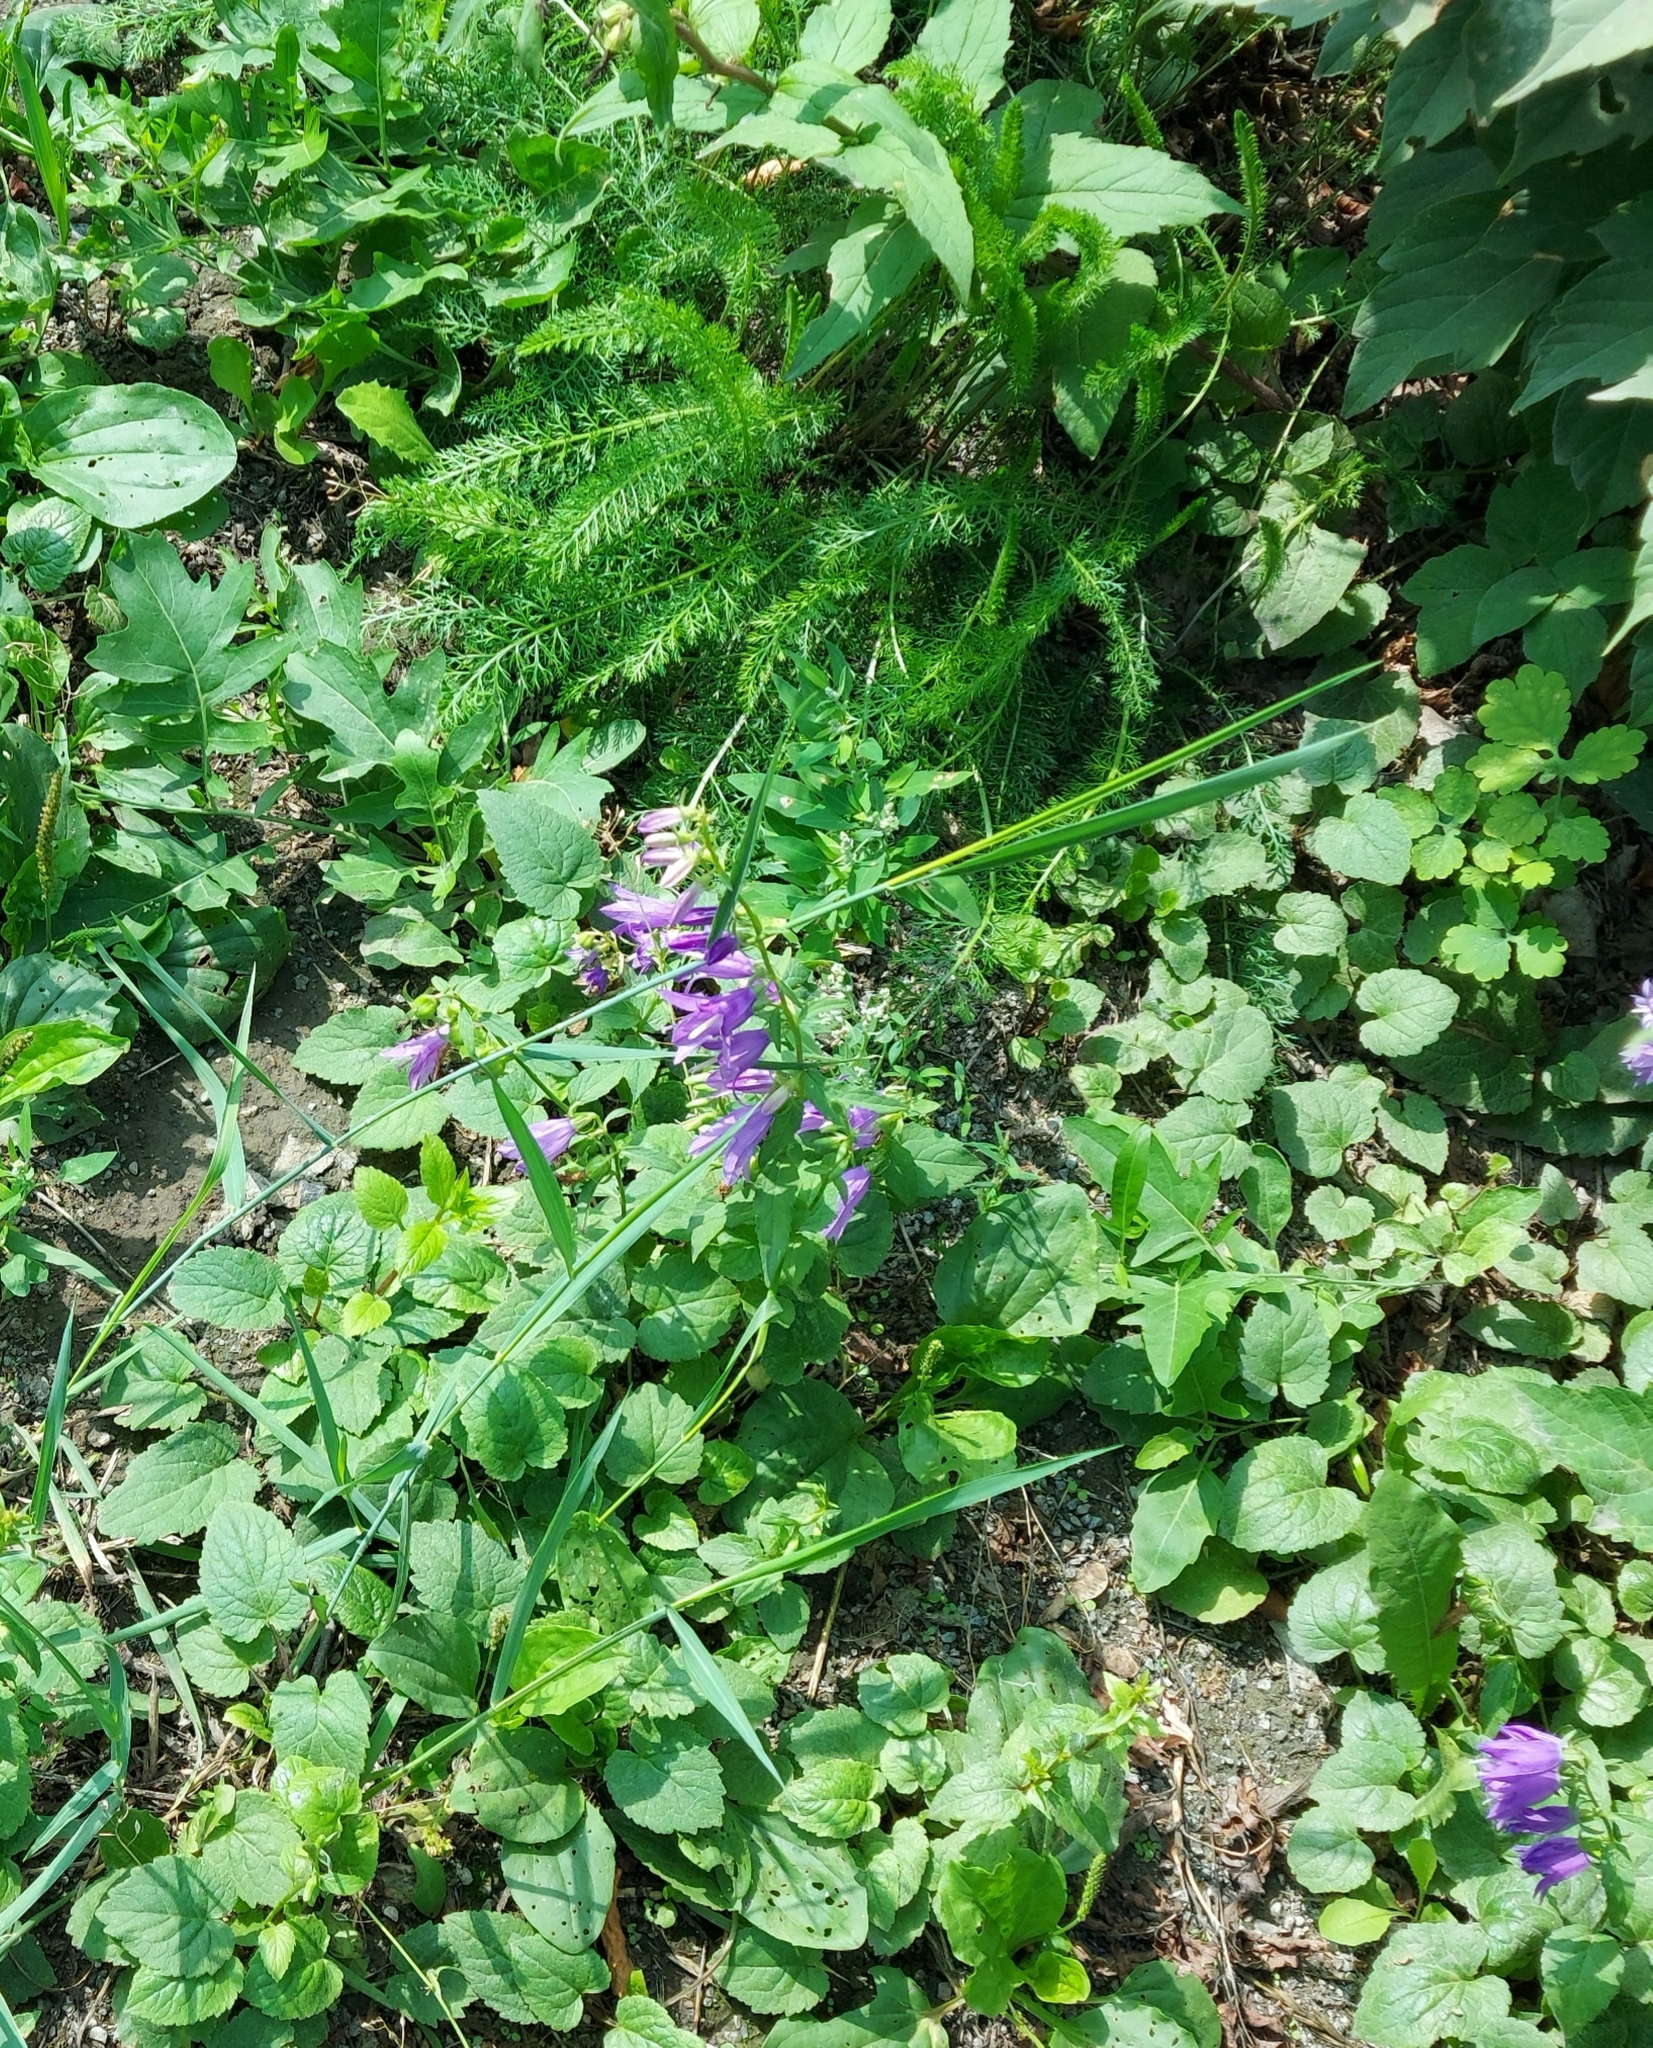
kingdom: Plantae
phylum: Tracheophyta
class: Magnoliopsida
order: Asterales
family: Campanulaceae
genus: Campanula
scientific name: Campanula rapunculoides
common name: Creeping bellflower
